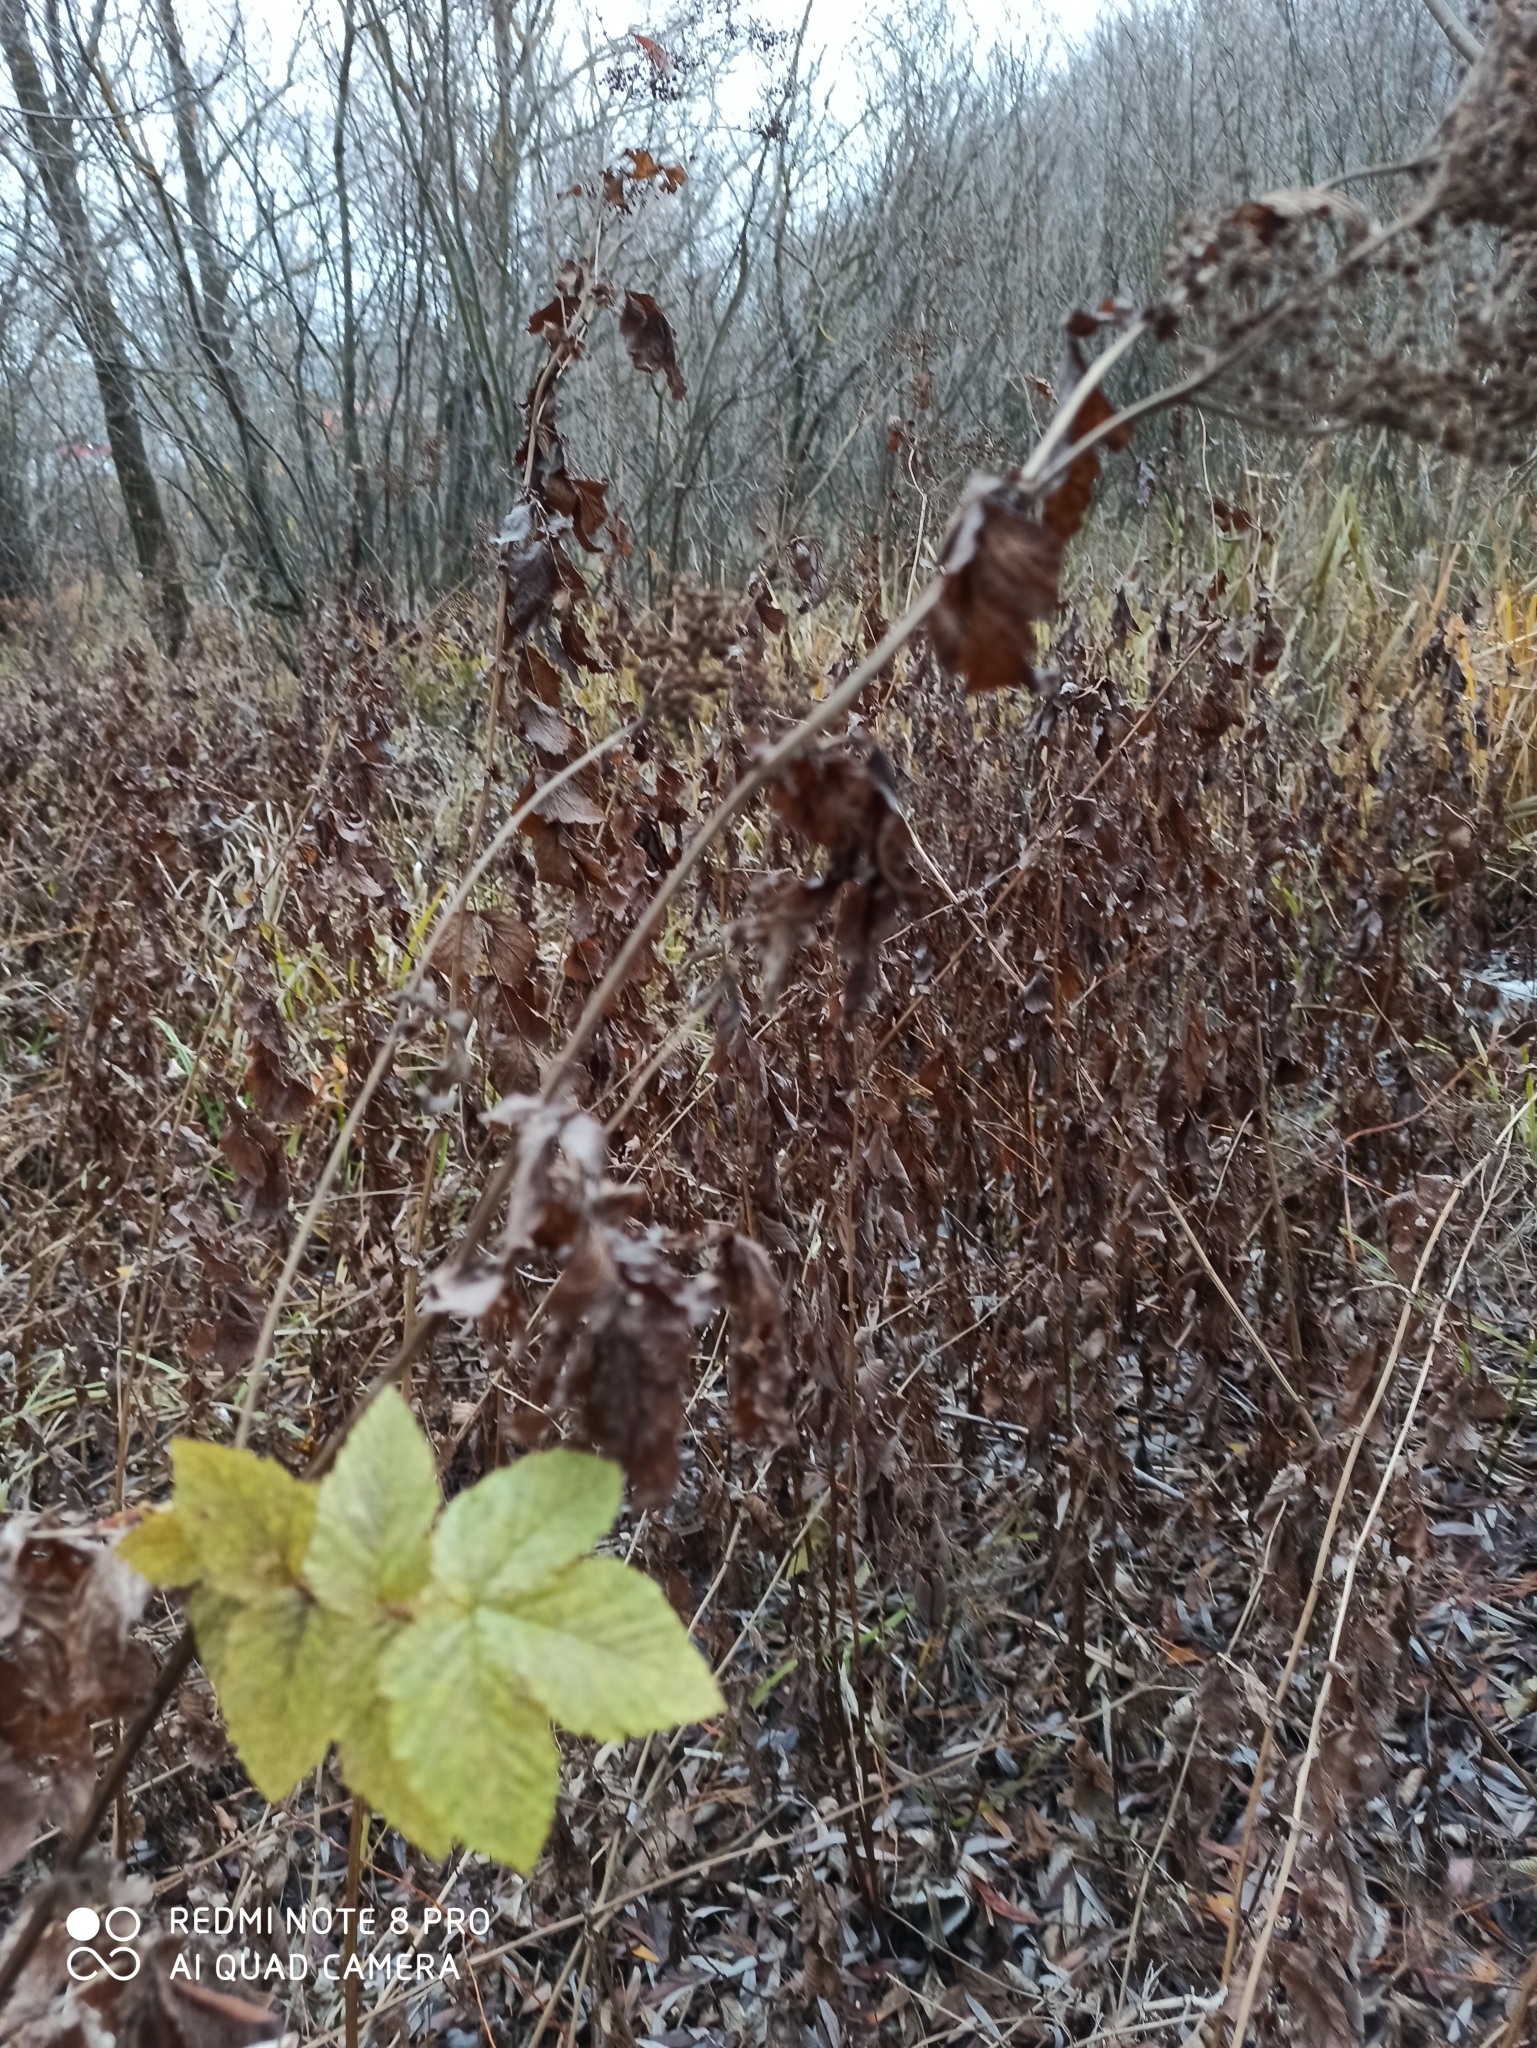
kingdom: Plantae
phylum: Tracheophyta
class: Magnoliopsida
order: Rosales
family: Rosaceae
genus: Filipendula
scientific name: Filipendula ulmaria
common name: Meadowsweet
